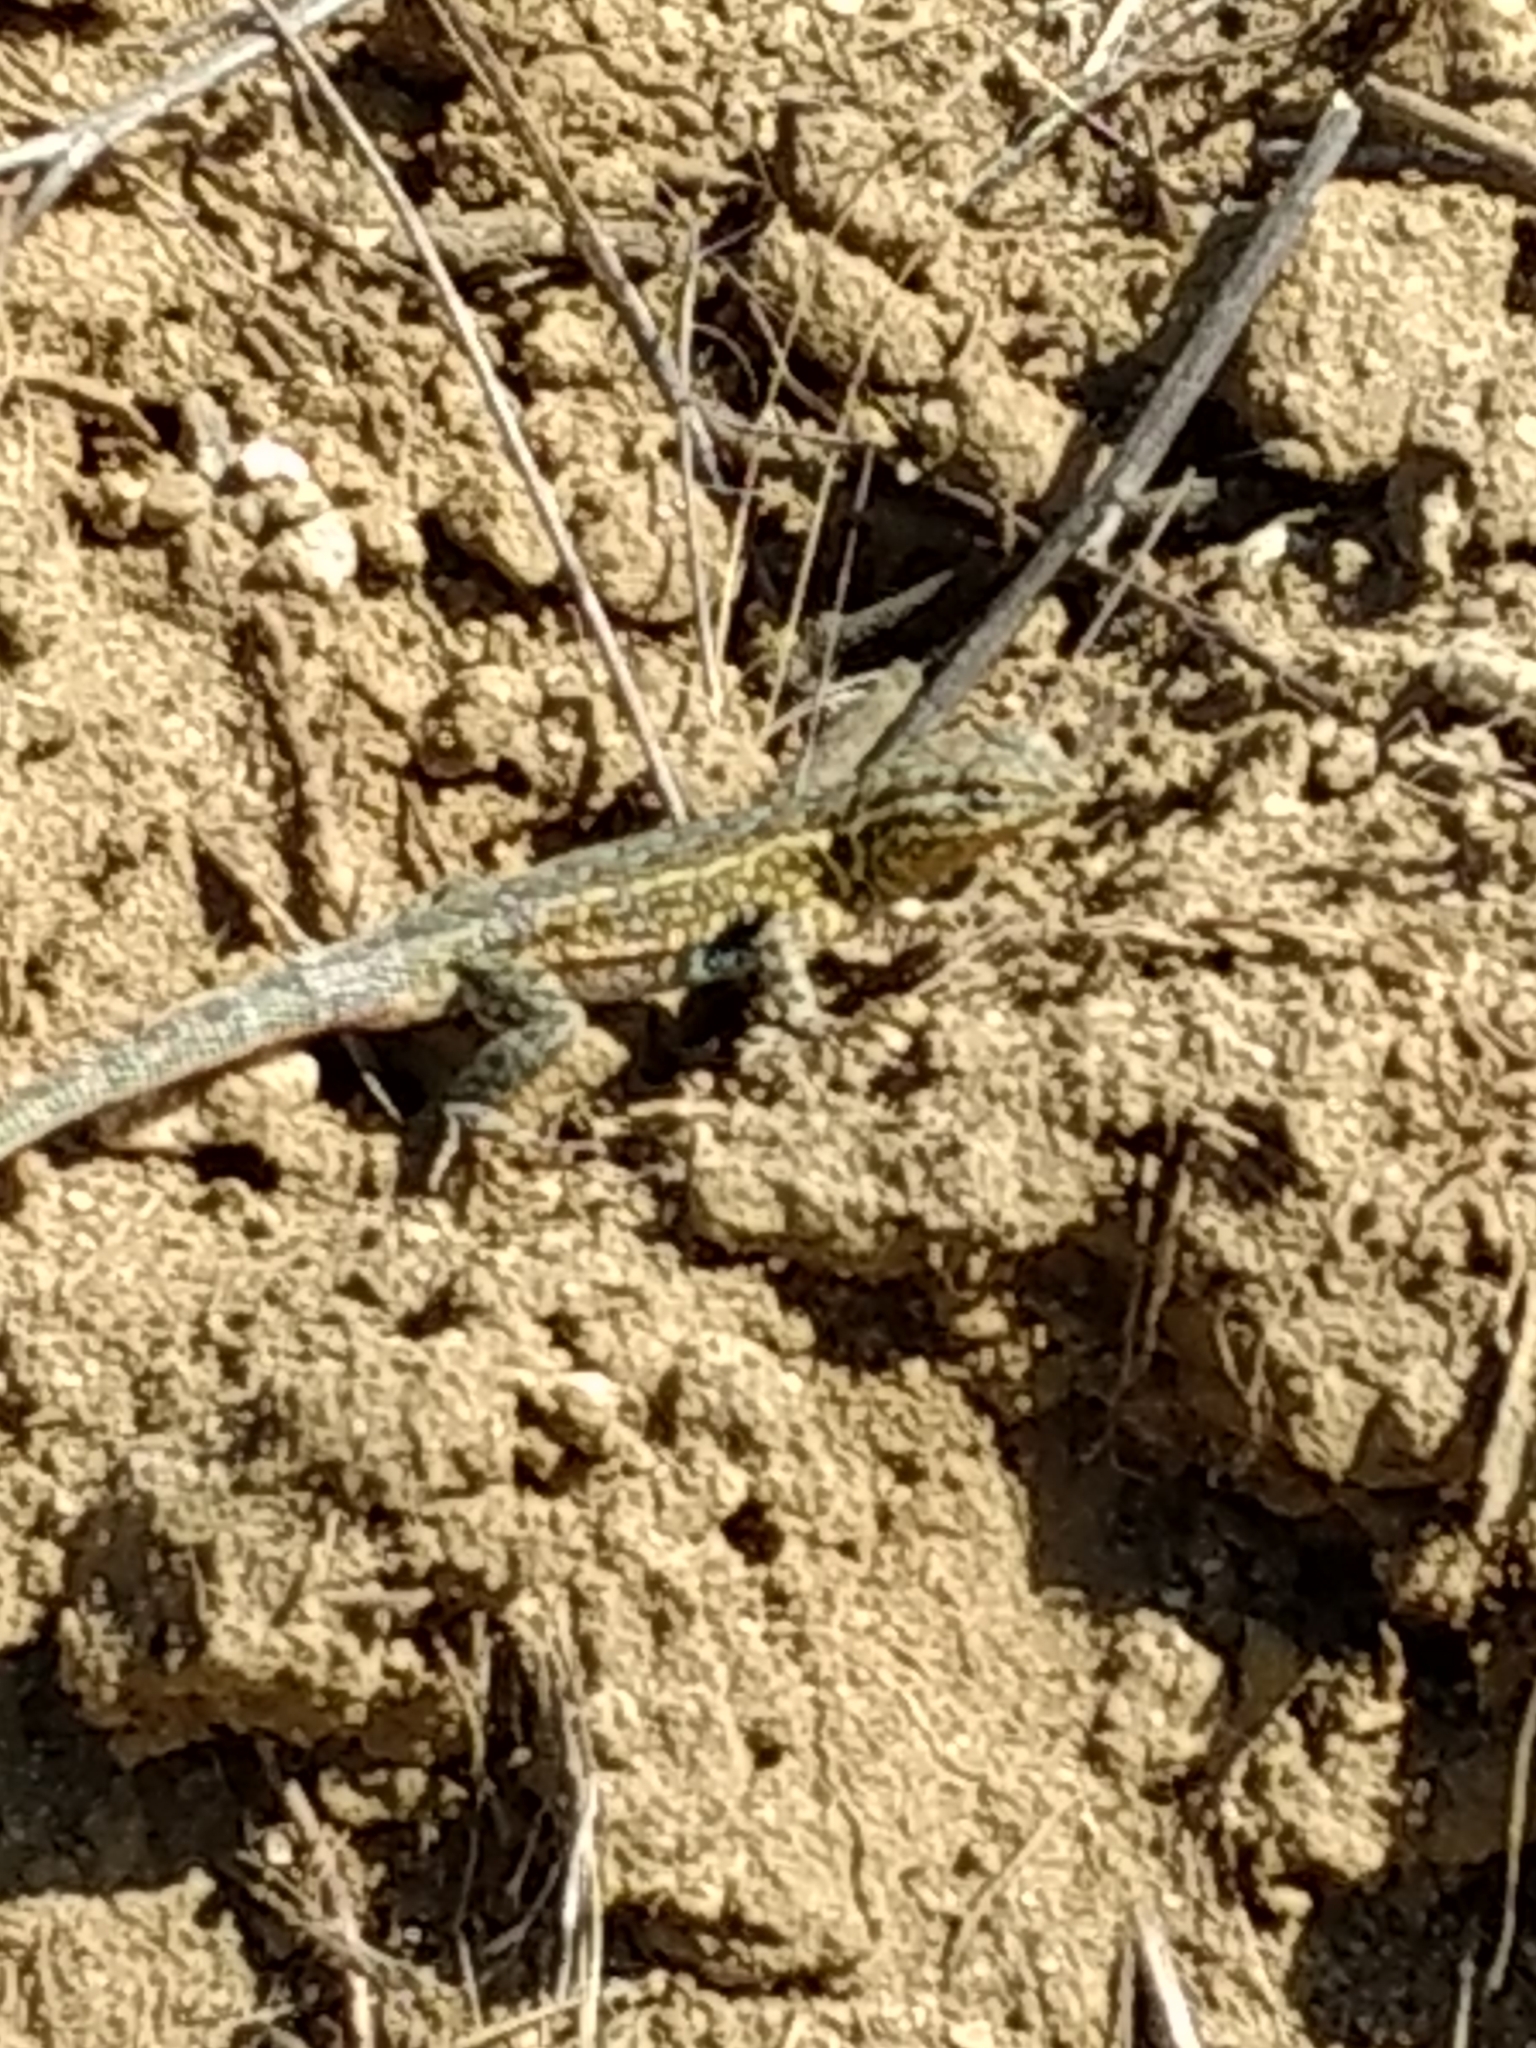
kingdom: Animalia
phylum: Chordata
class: Squamata
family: Phrynosomatidae
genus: Uta
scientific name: Uta stansburiana
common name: Side-blotched lizard
